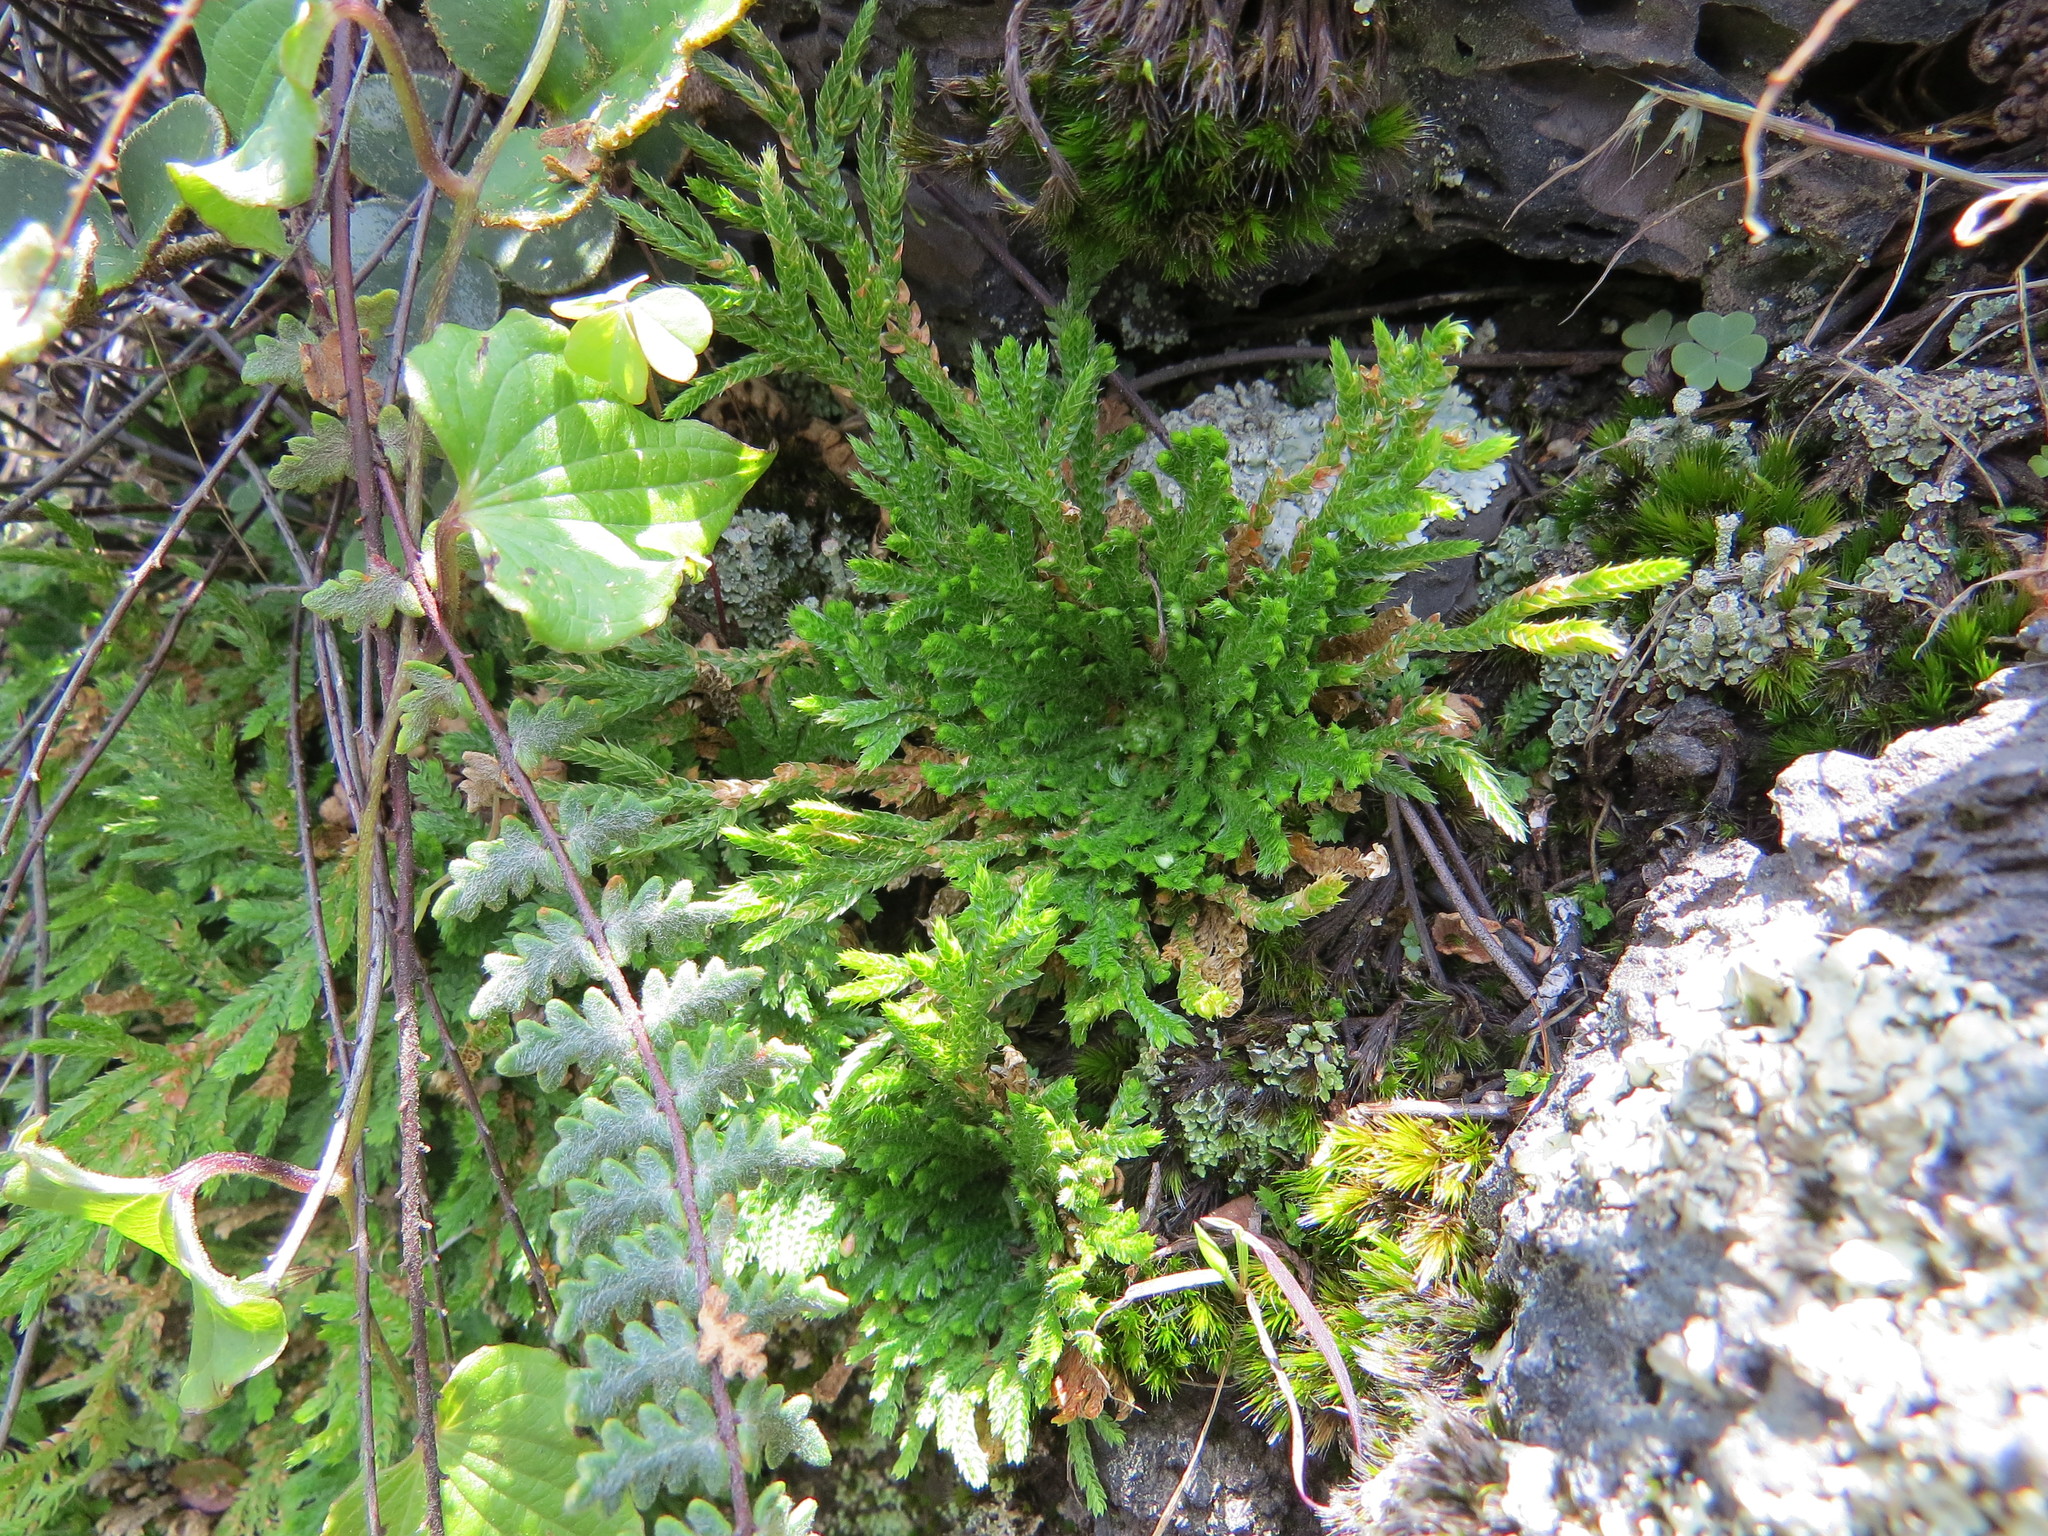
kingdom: Plantae
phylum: Tracheophyta
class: Lycopodiopsida
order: Selaginellales
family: Selaginellaceae
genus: Selaginella
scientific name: Selaginella lepidophylla
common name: Rose-of-jericho
